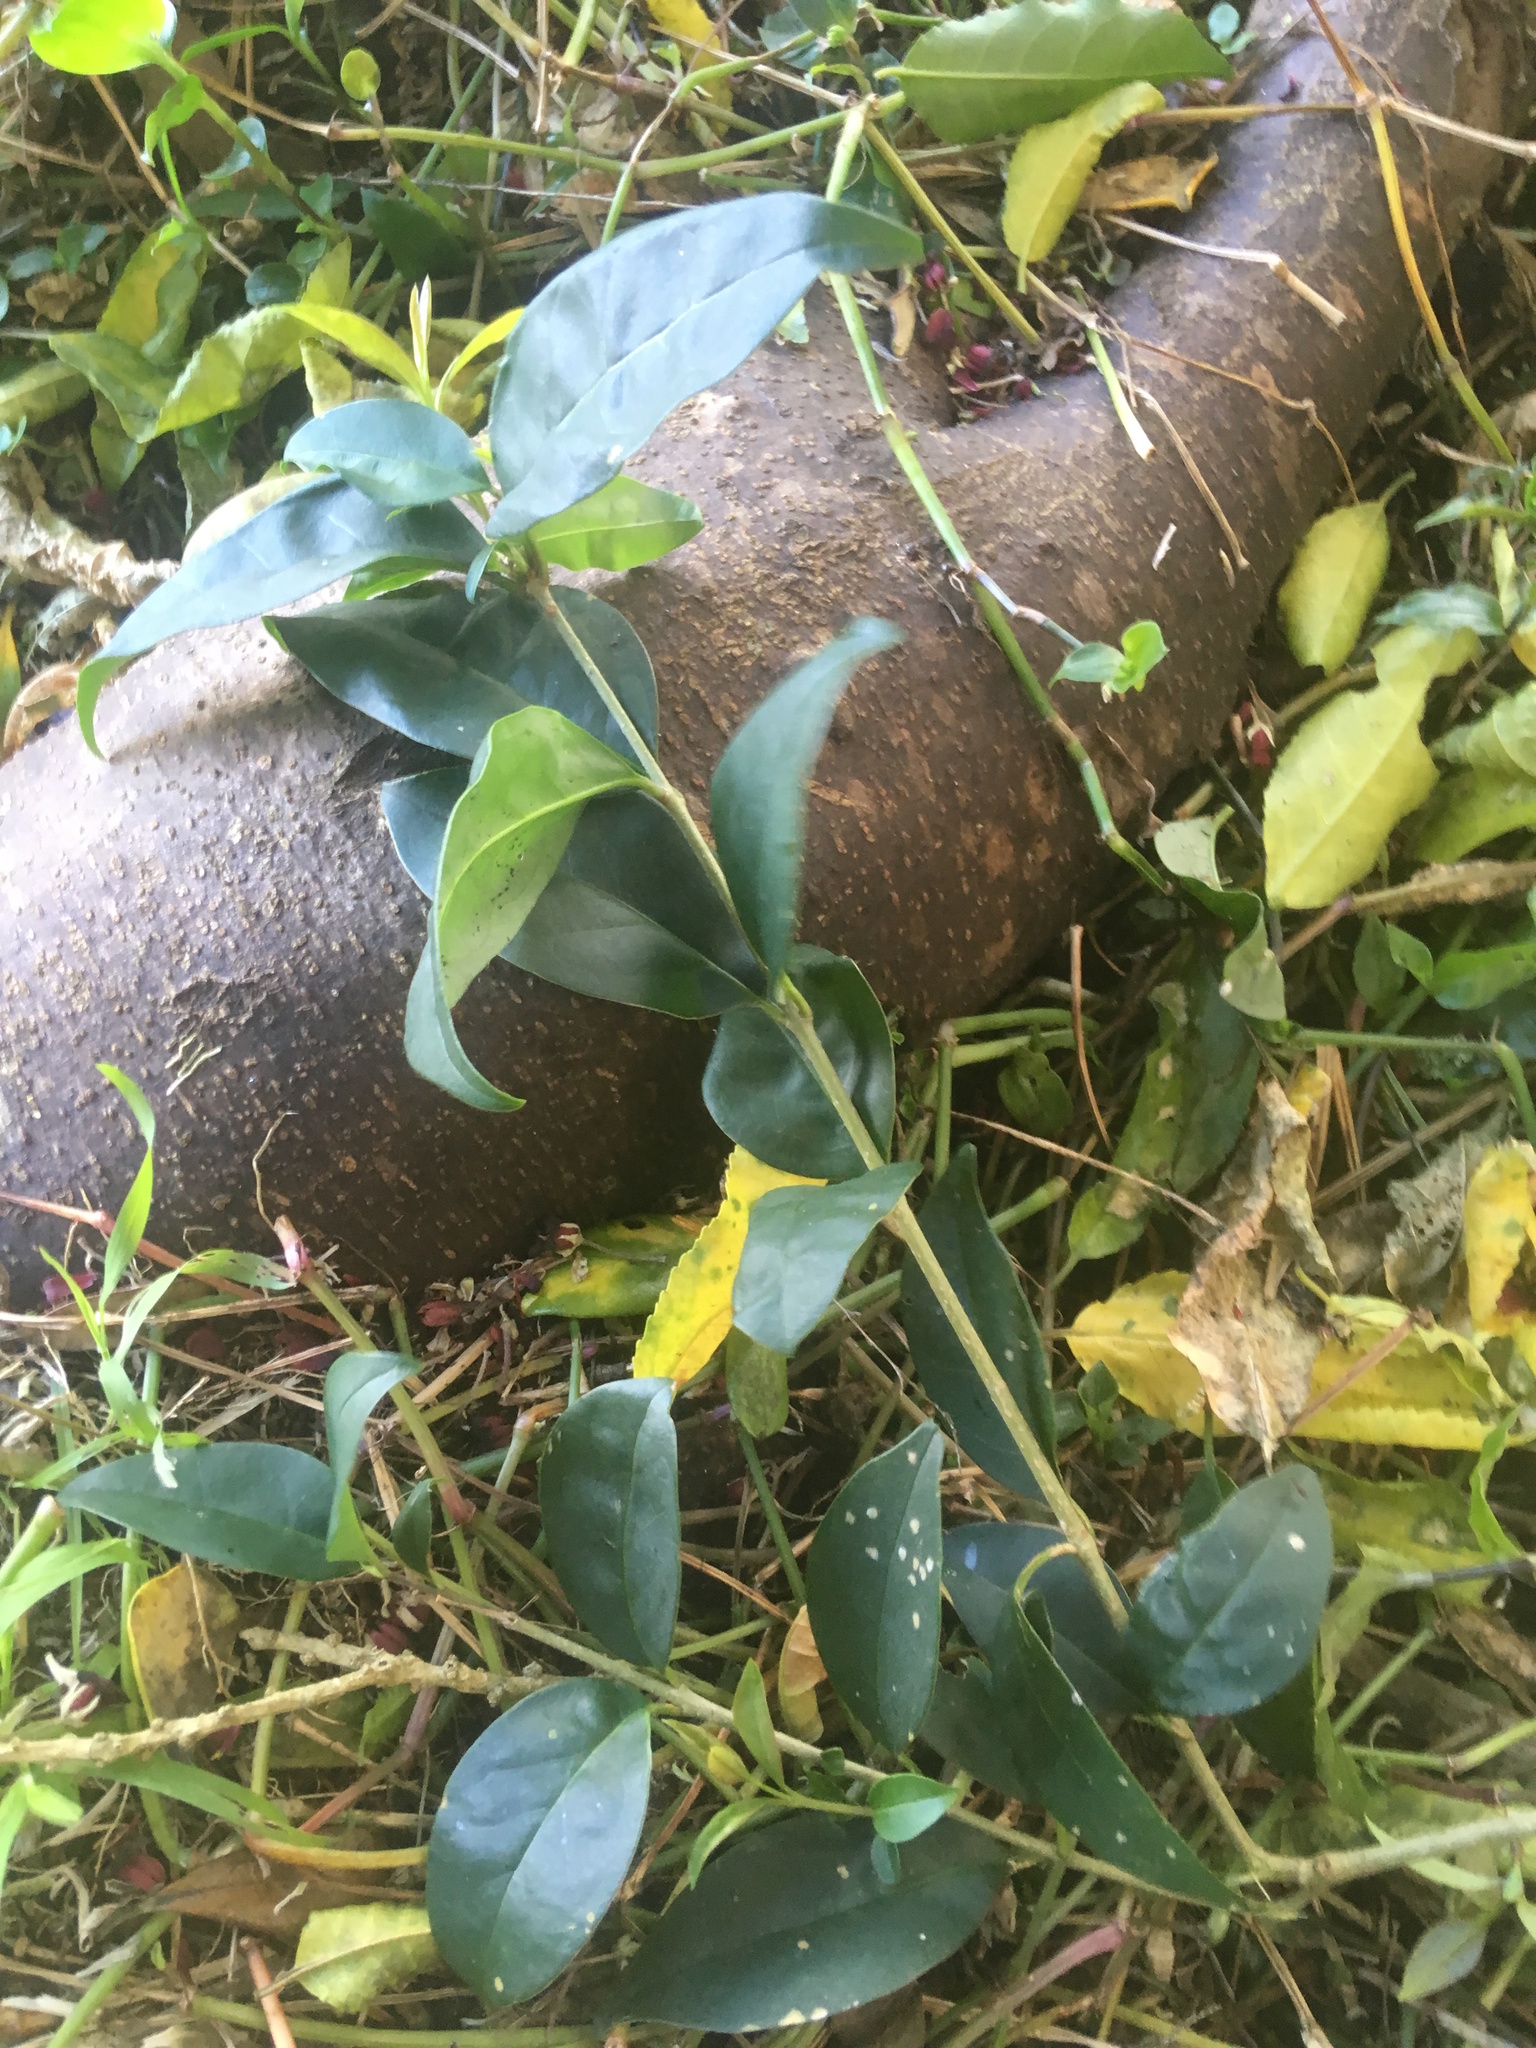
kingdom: Plantae
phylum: Tracheophyta
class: Magnoliopsida
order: Lamiales
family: Oleaceae
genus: Ligustrum
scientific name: Ligustrum lucidum
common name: Glossy privet
